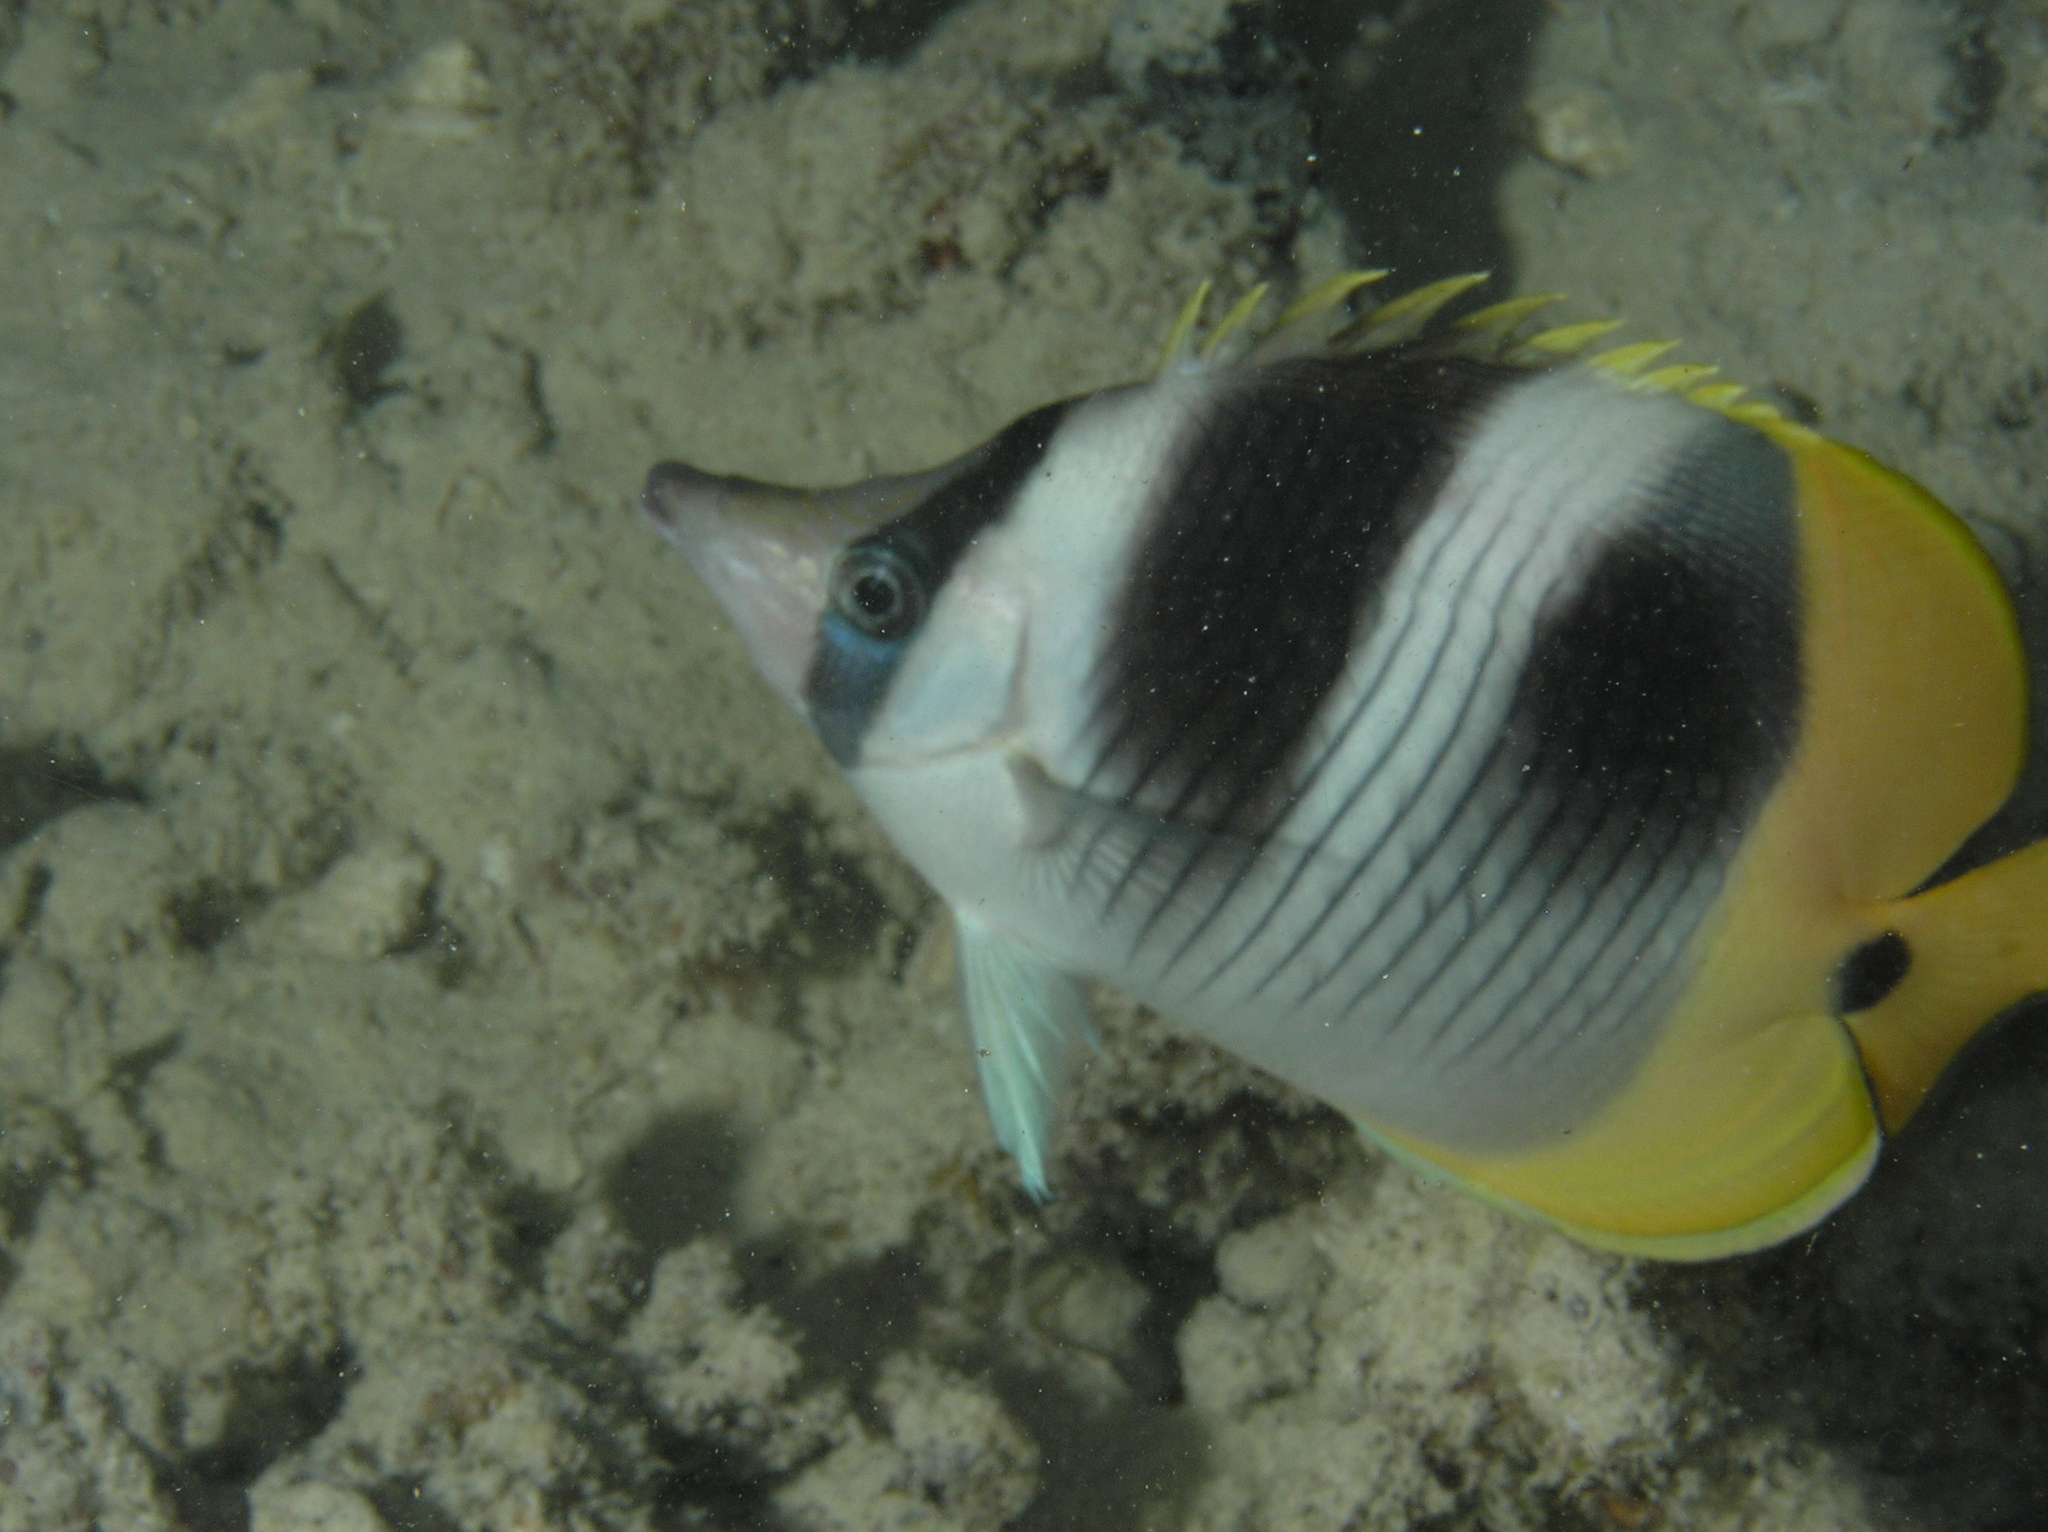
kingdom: Animalia
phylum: Chordata
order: Perciformes
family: Chaetodontidae
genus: Chaetodon
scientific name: Chaetodon ulietensis
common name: Pacific double-saddle butterflyfish
